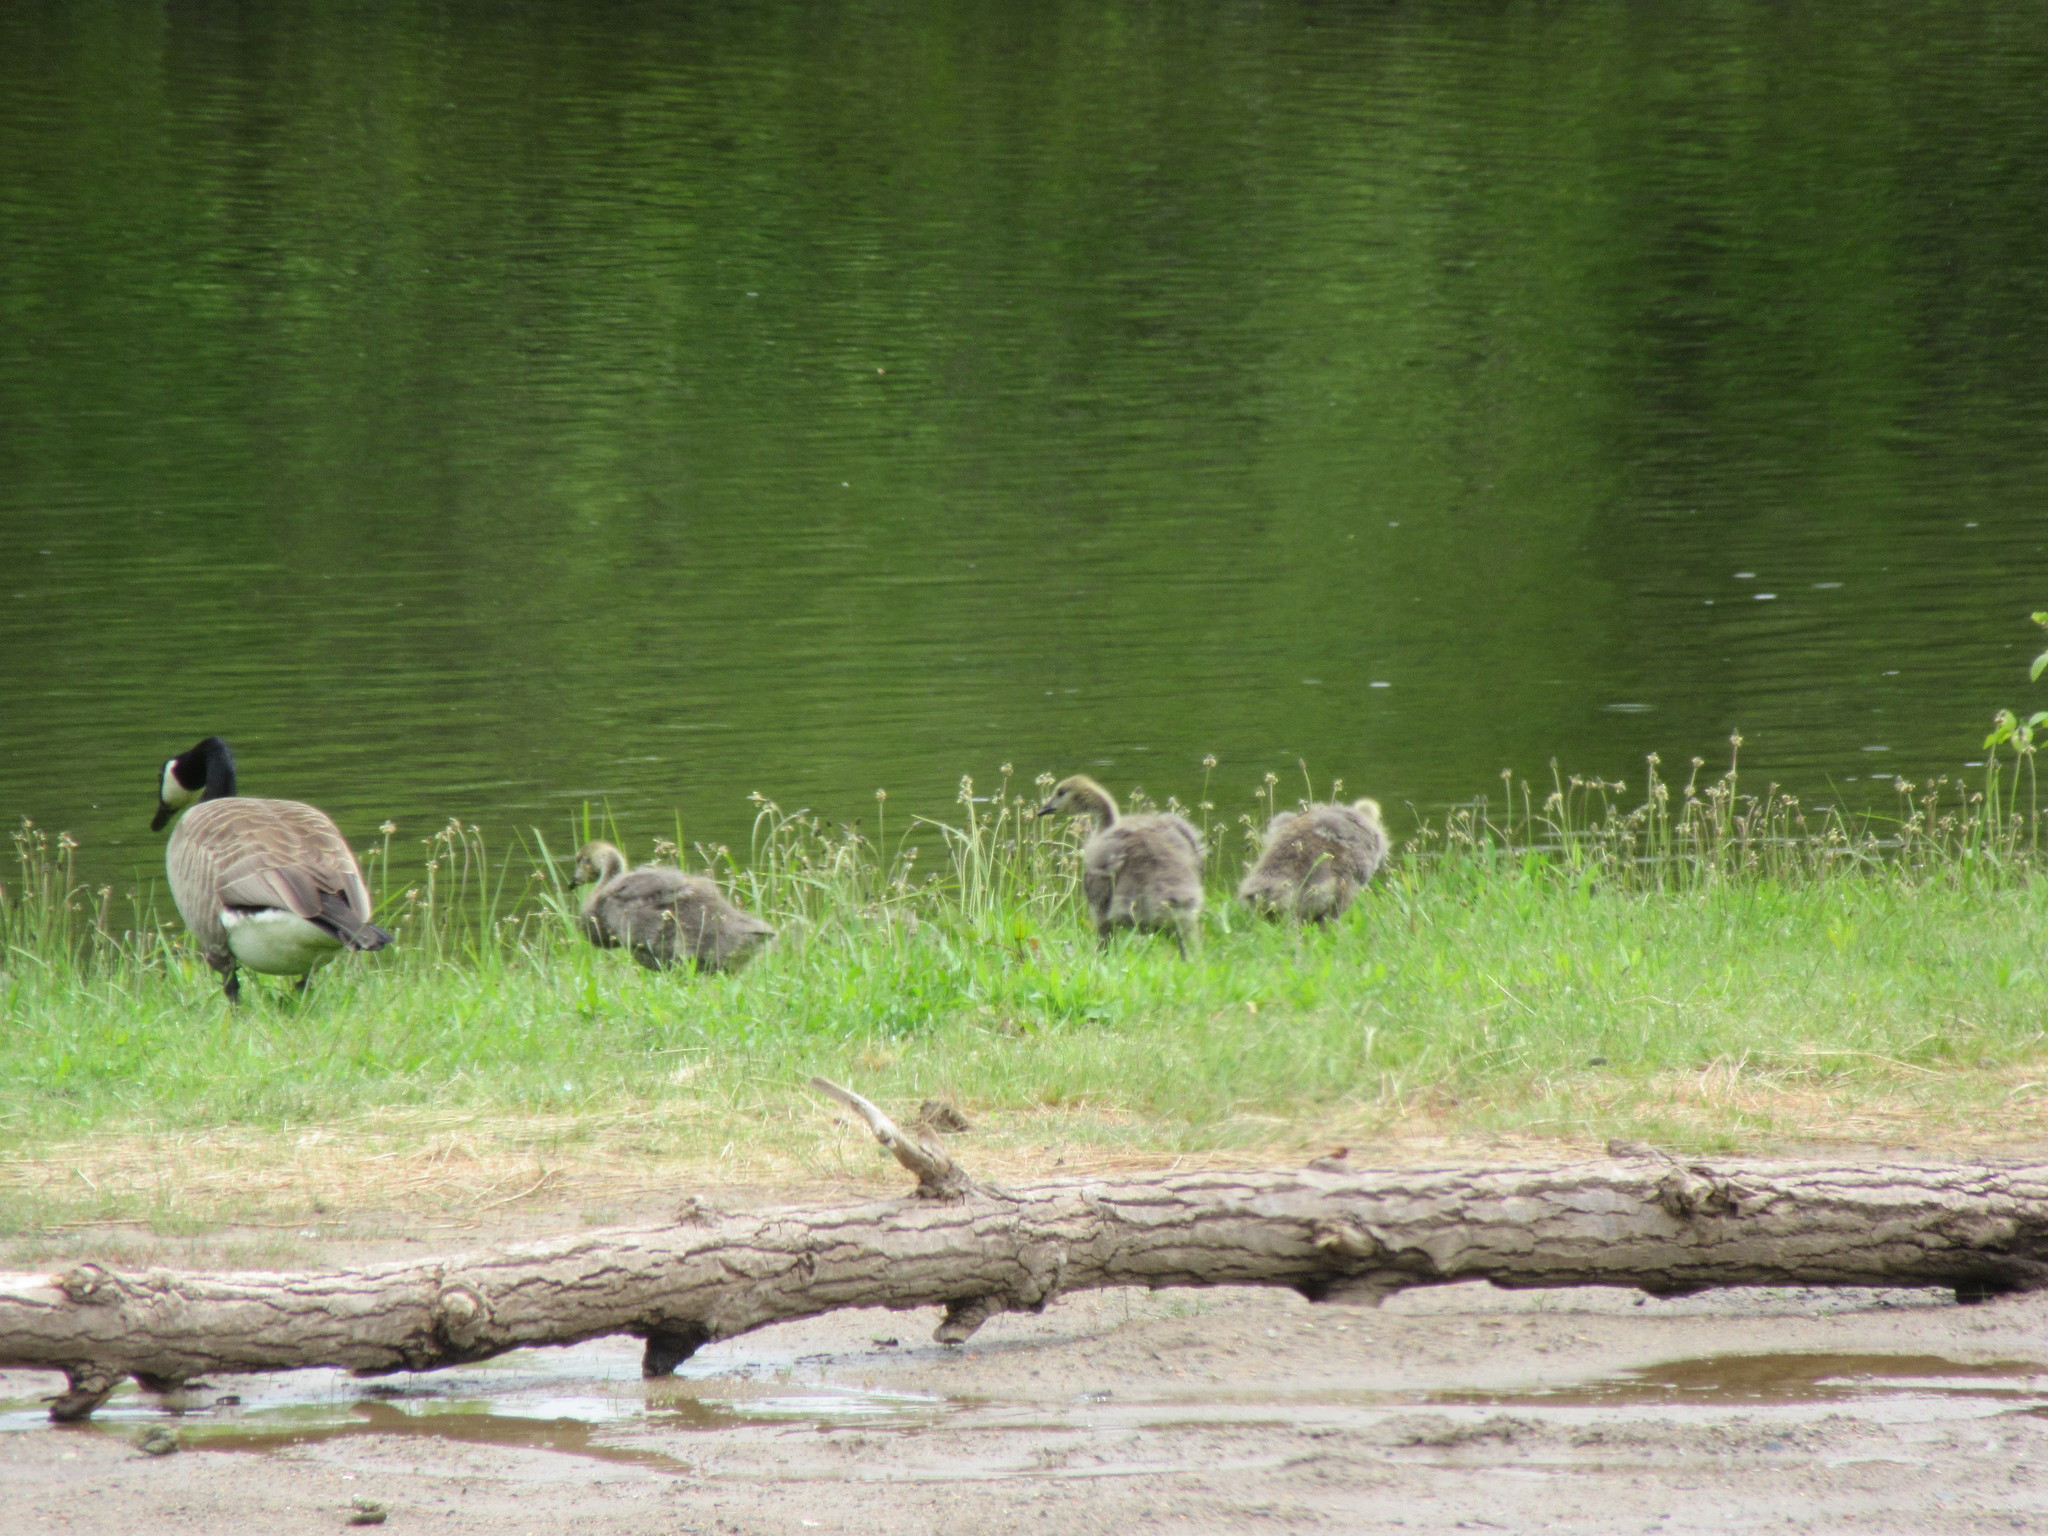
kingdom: Animalia
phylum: Chordata
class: Aves
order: Anseriformes
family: Anatidae
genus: Branta
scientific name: Branta canadensis
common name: Canada goose
